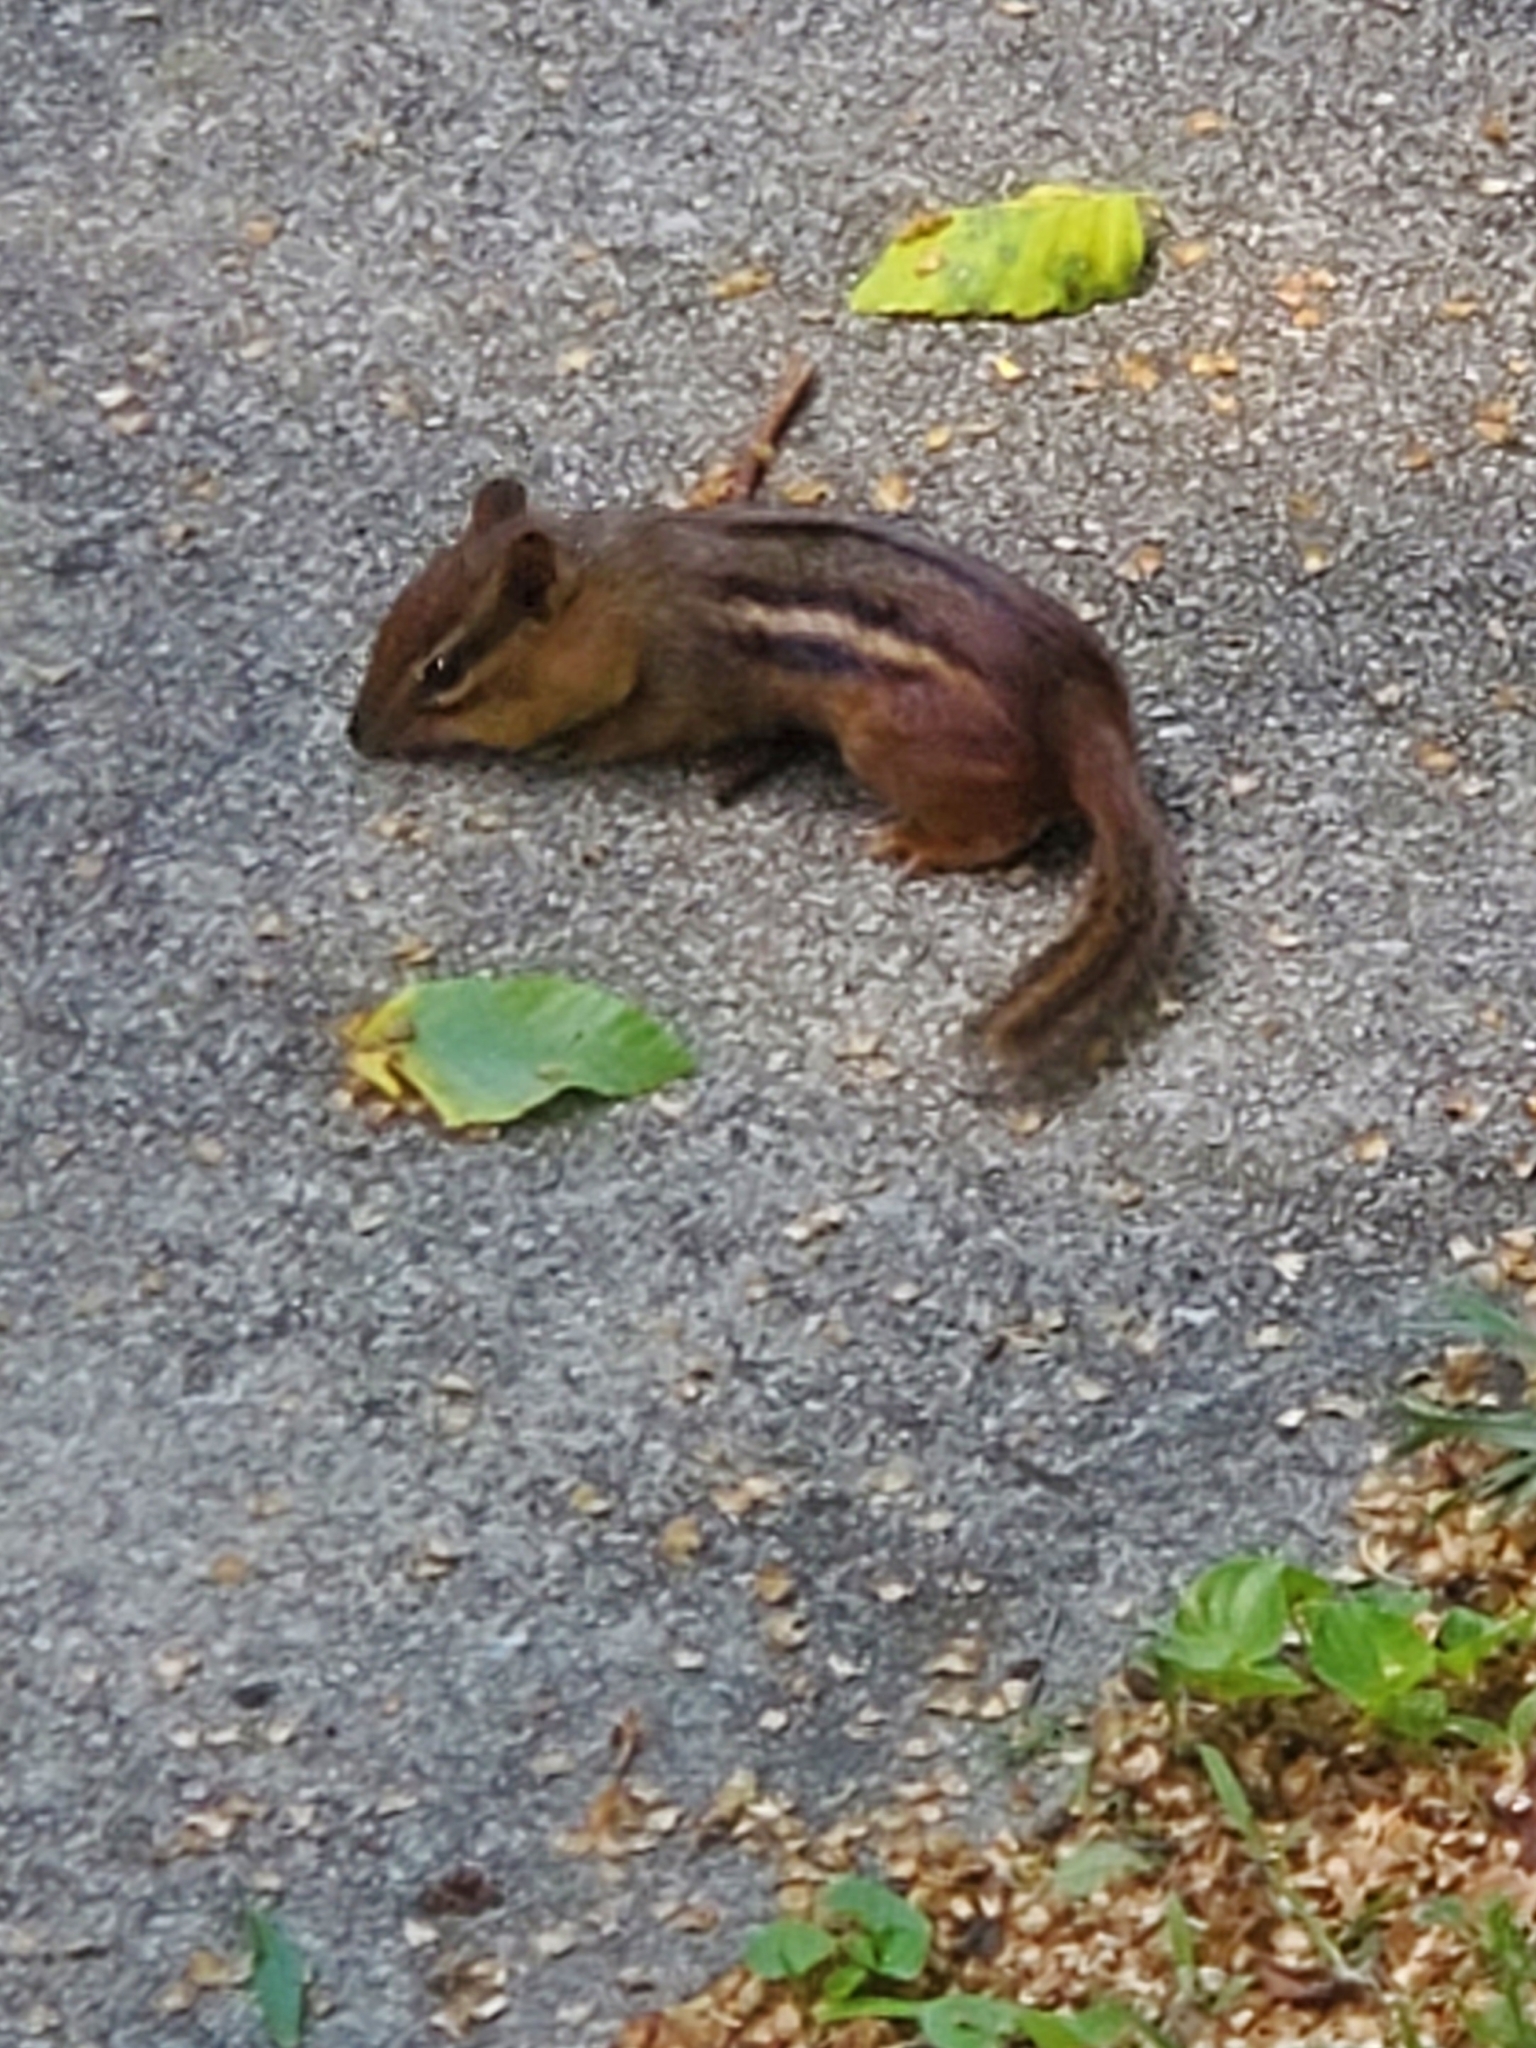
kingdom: Animalia
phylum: Chordata
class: Mammalia
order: Rodentia
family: Sciuridae
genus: Tamias
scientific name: Tamias striatus
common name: Eastern chipmunk
